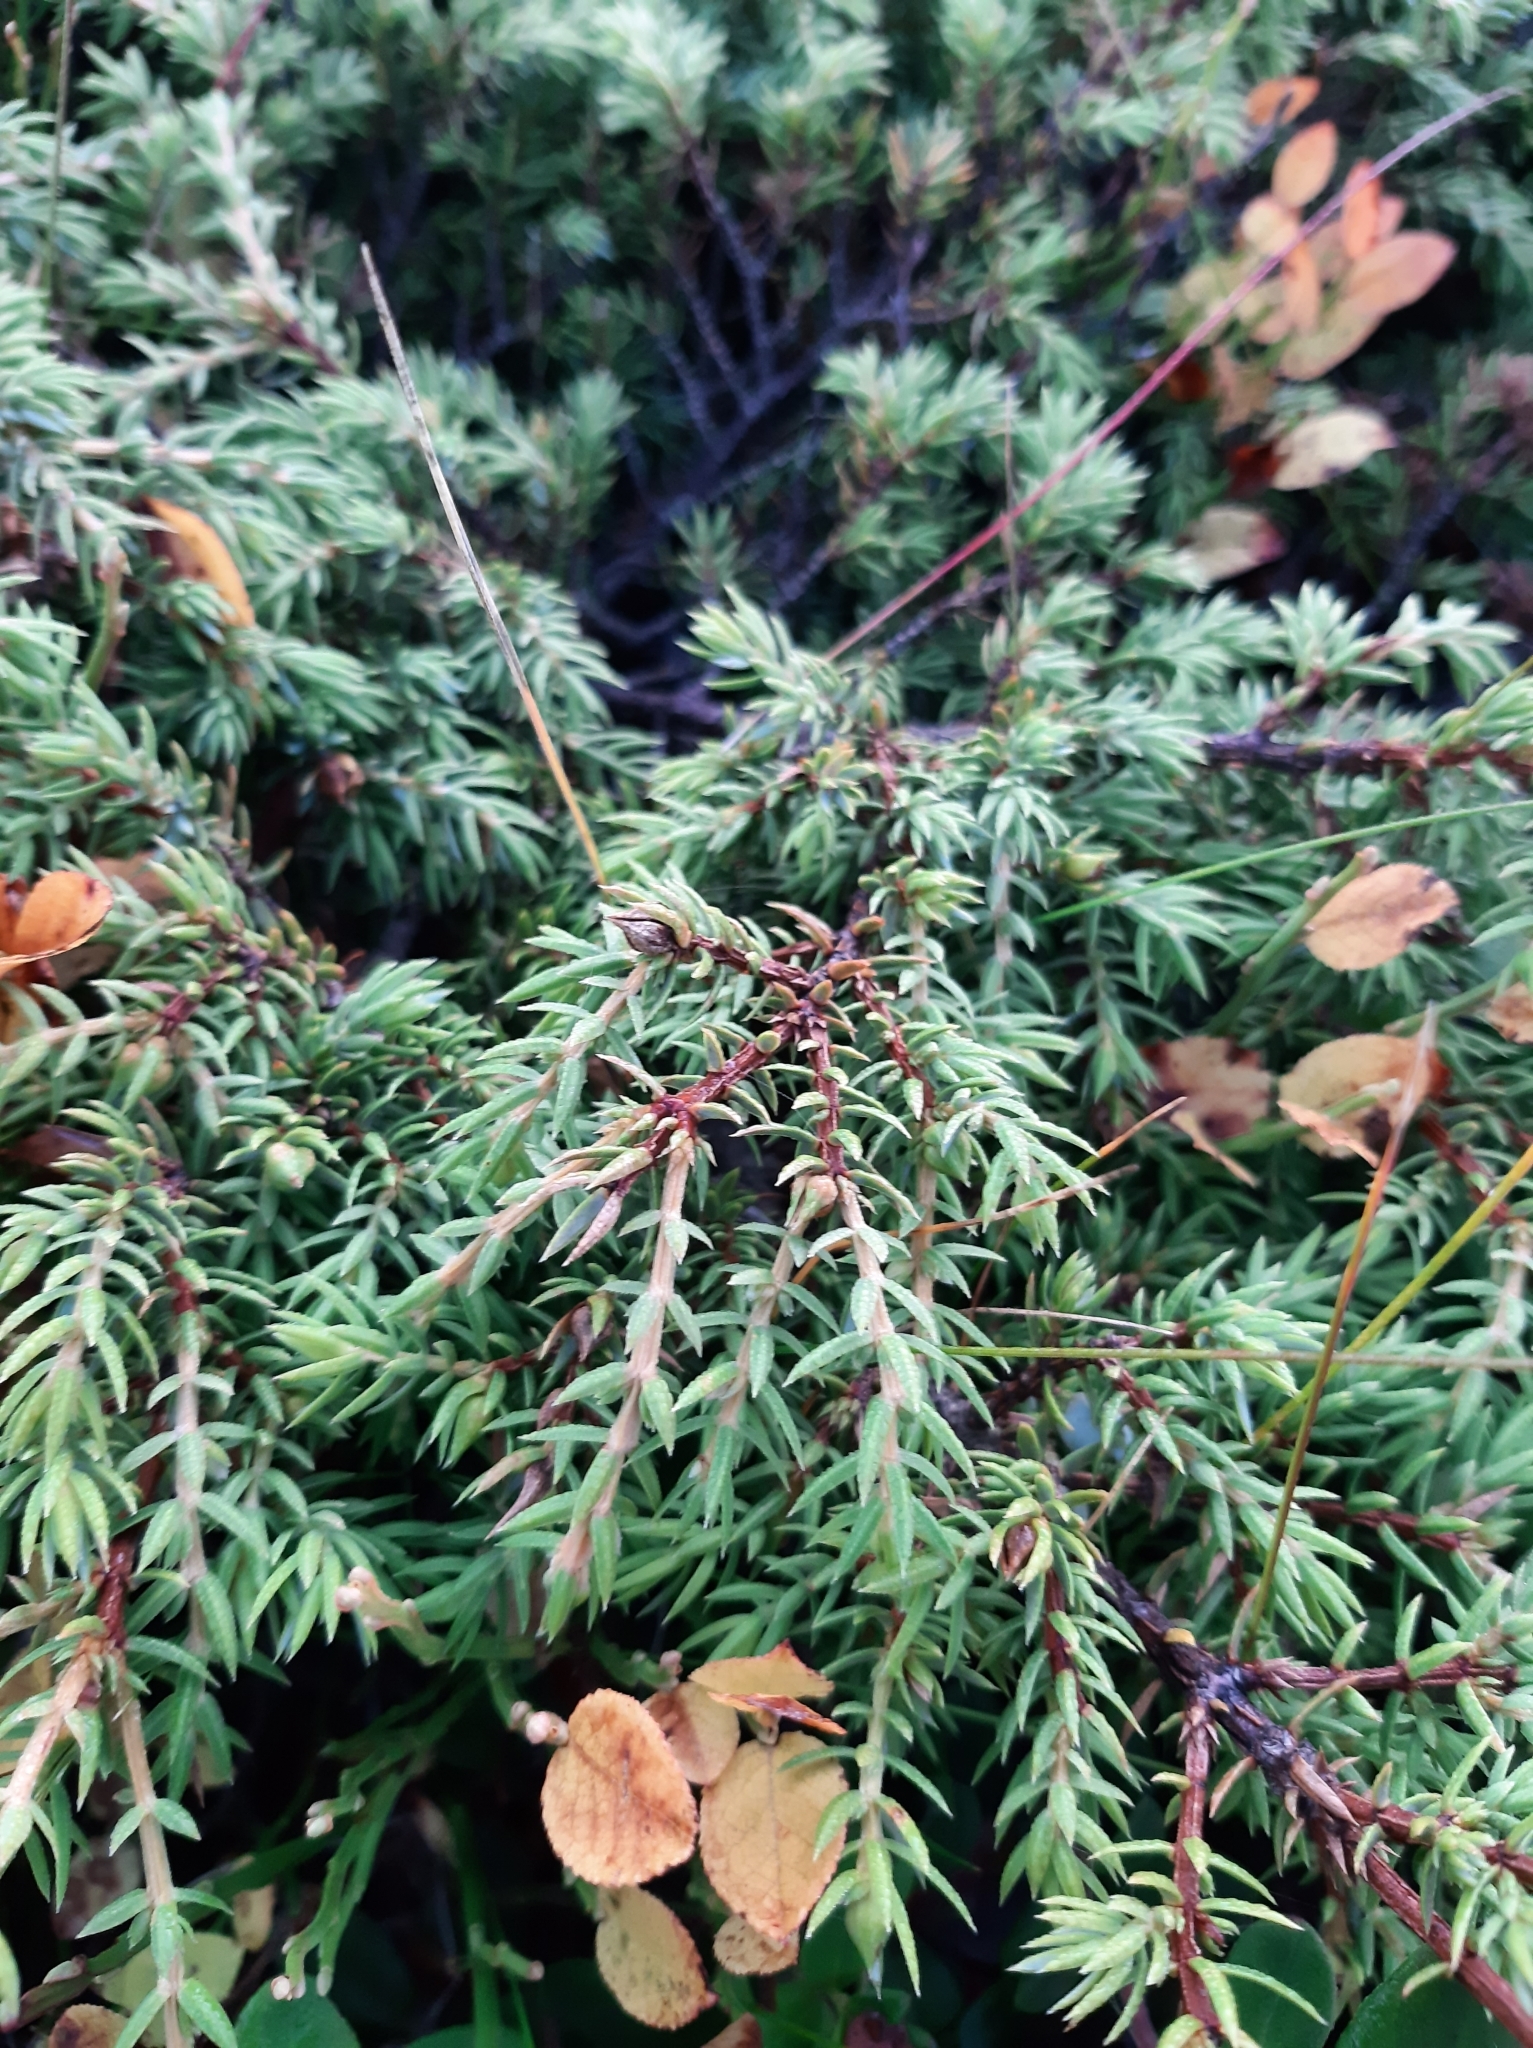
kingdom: Plantae
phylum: Tracheophyta
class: Pinopsida
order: Pinales
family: Cupressaceae
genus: Juniperus
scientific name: Juniperus communis
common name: Common juniper
